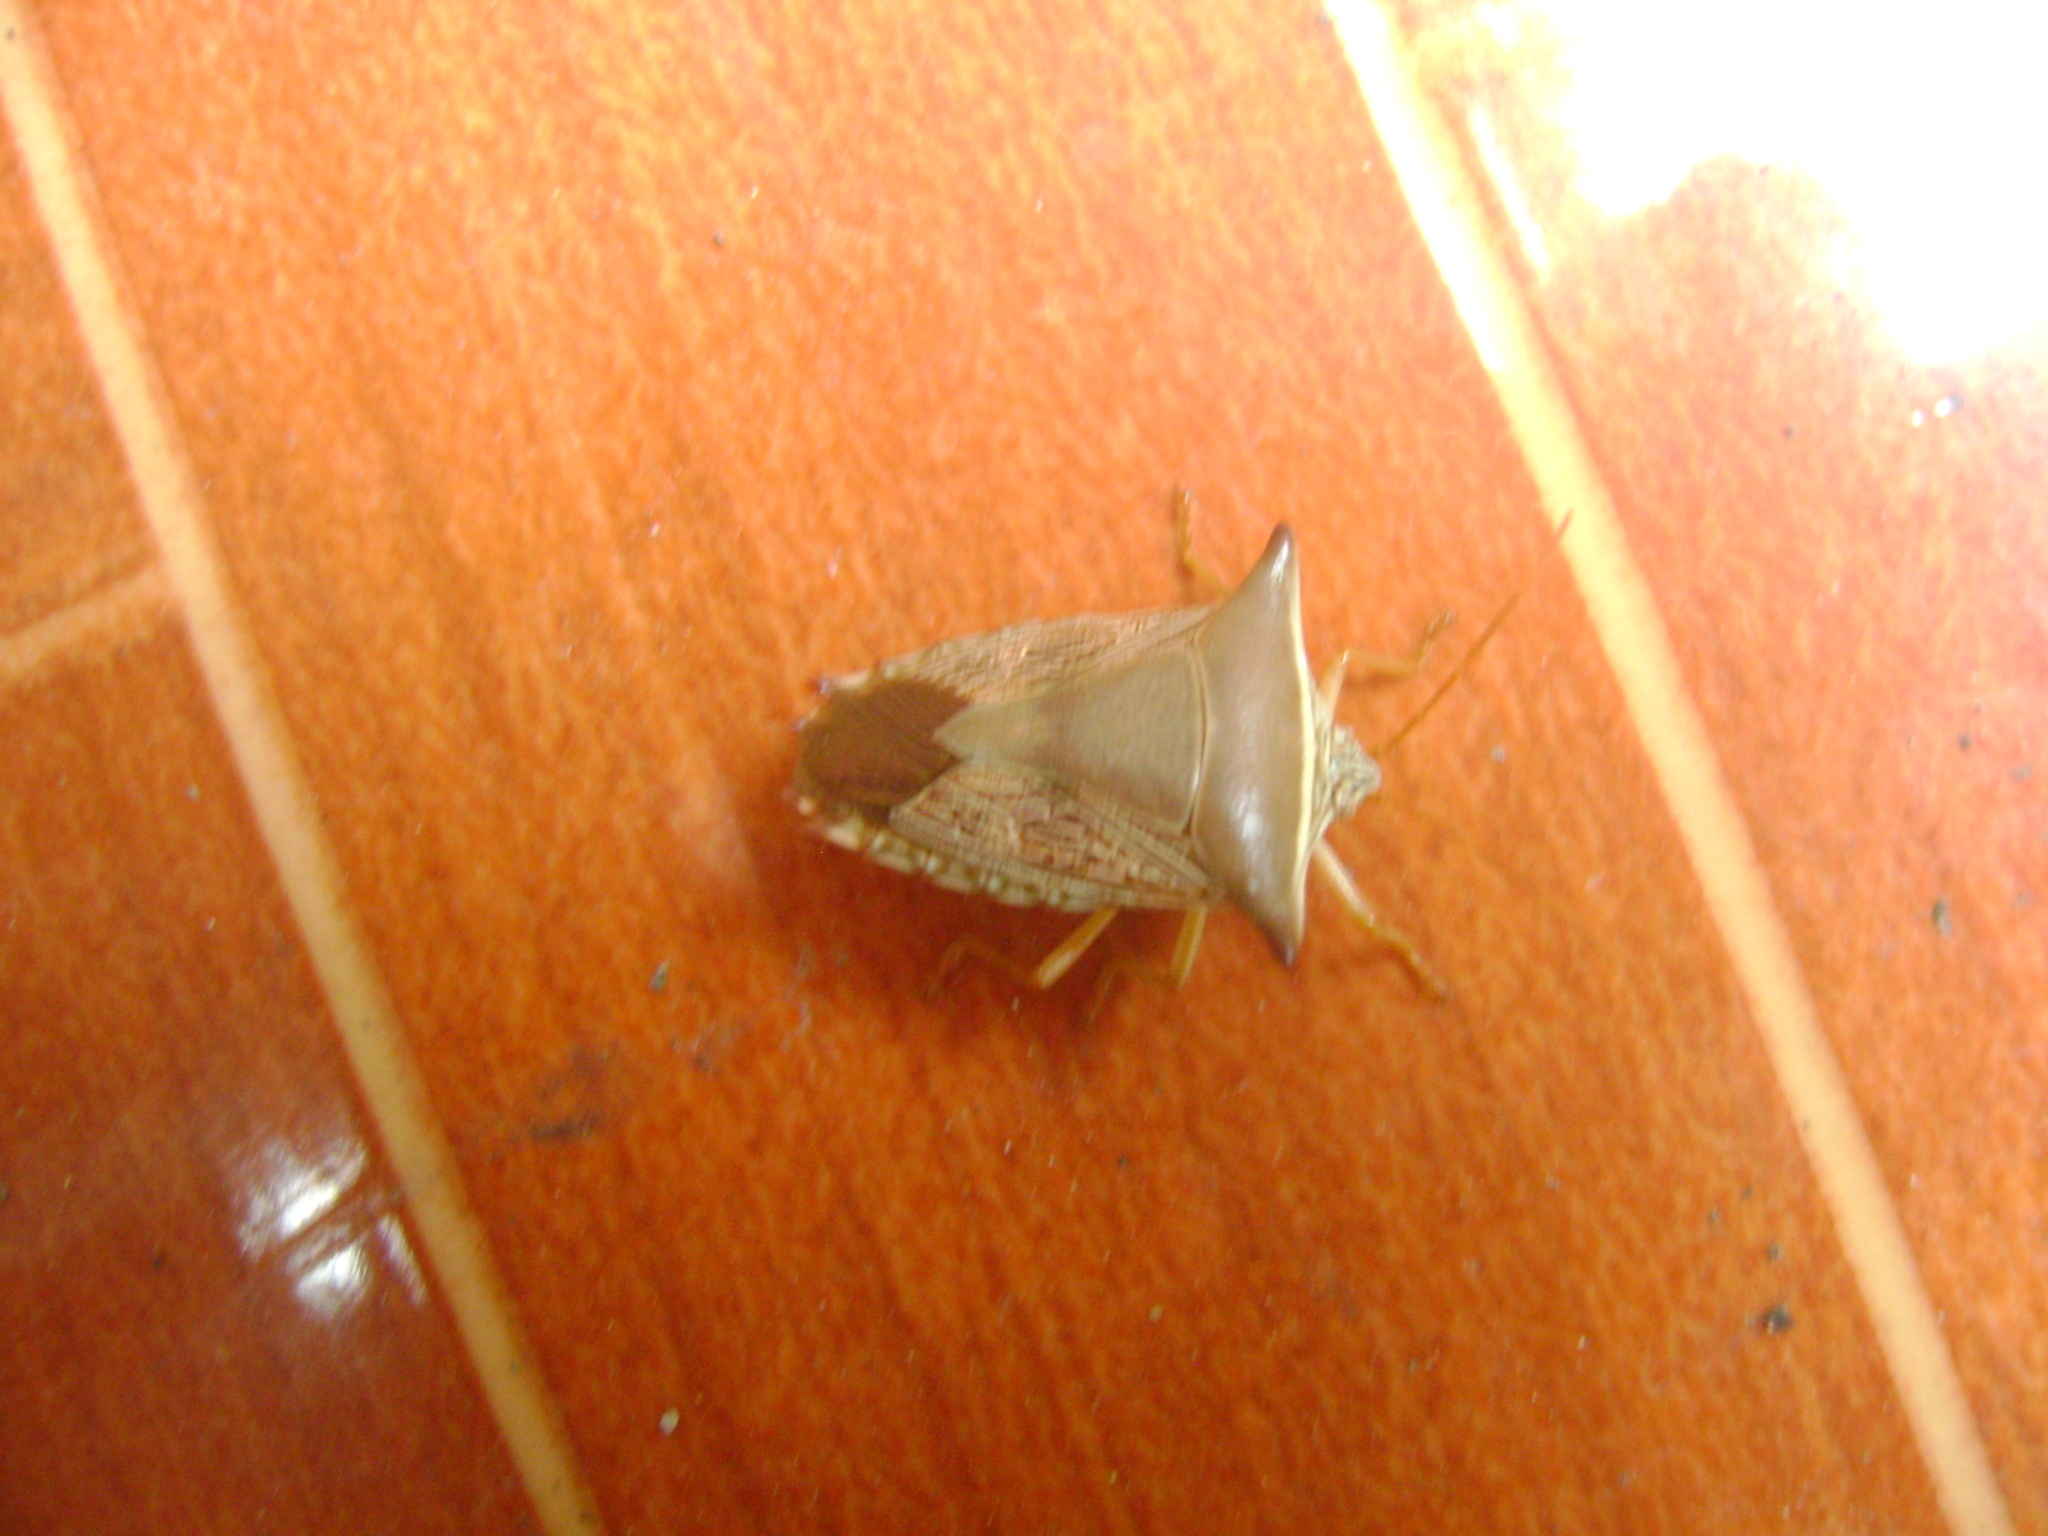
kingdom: Animalia
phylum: Arthropoda
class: Insecta
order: Hemiptera
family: Pentatomidae
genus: Edessa
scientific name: Edessa reticulata
